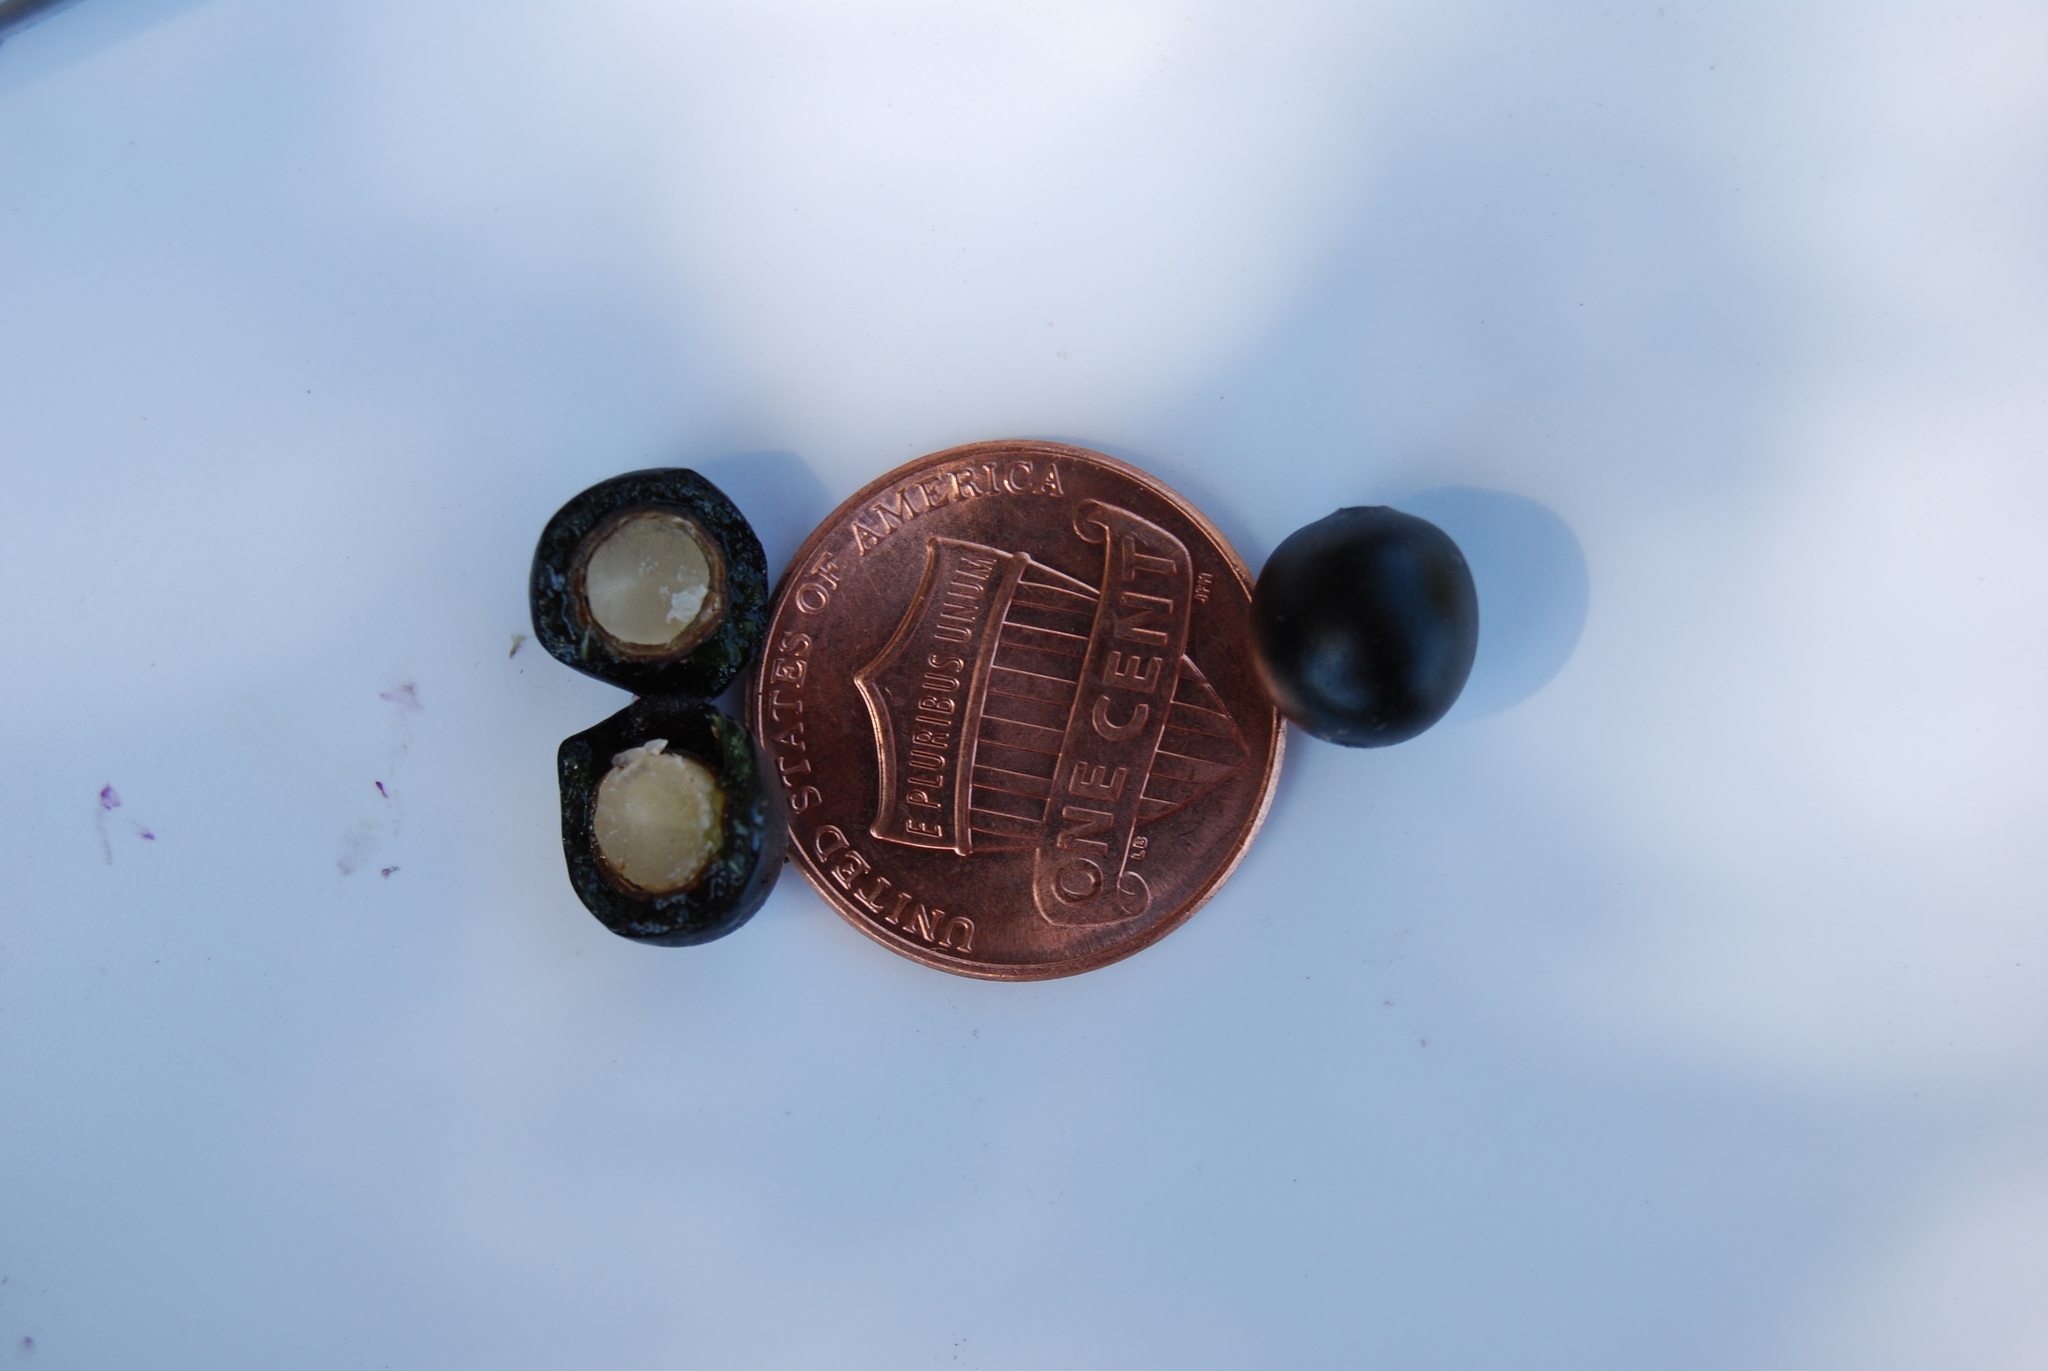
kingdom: Plantae
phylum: Tracheophyta
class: Magnoliopsida
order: Ericales
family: Sapotaceae
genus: Sideroxylon
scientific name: Sideroxylon lanuginosum
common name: Chittamwood
